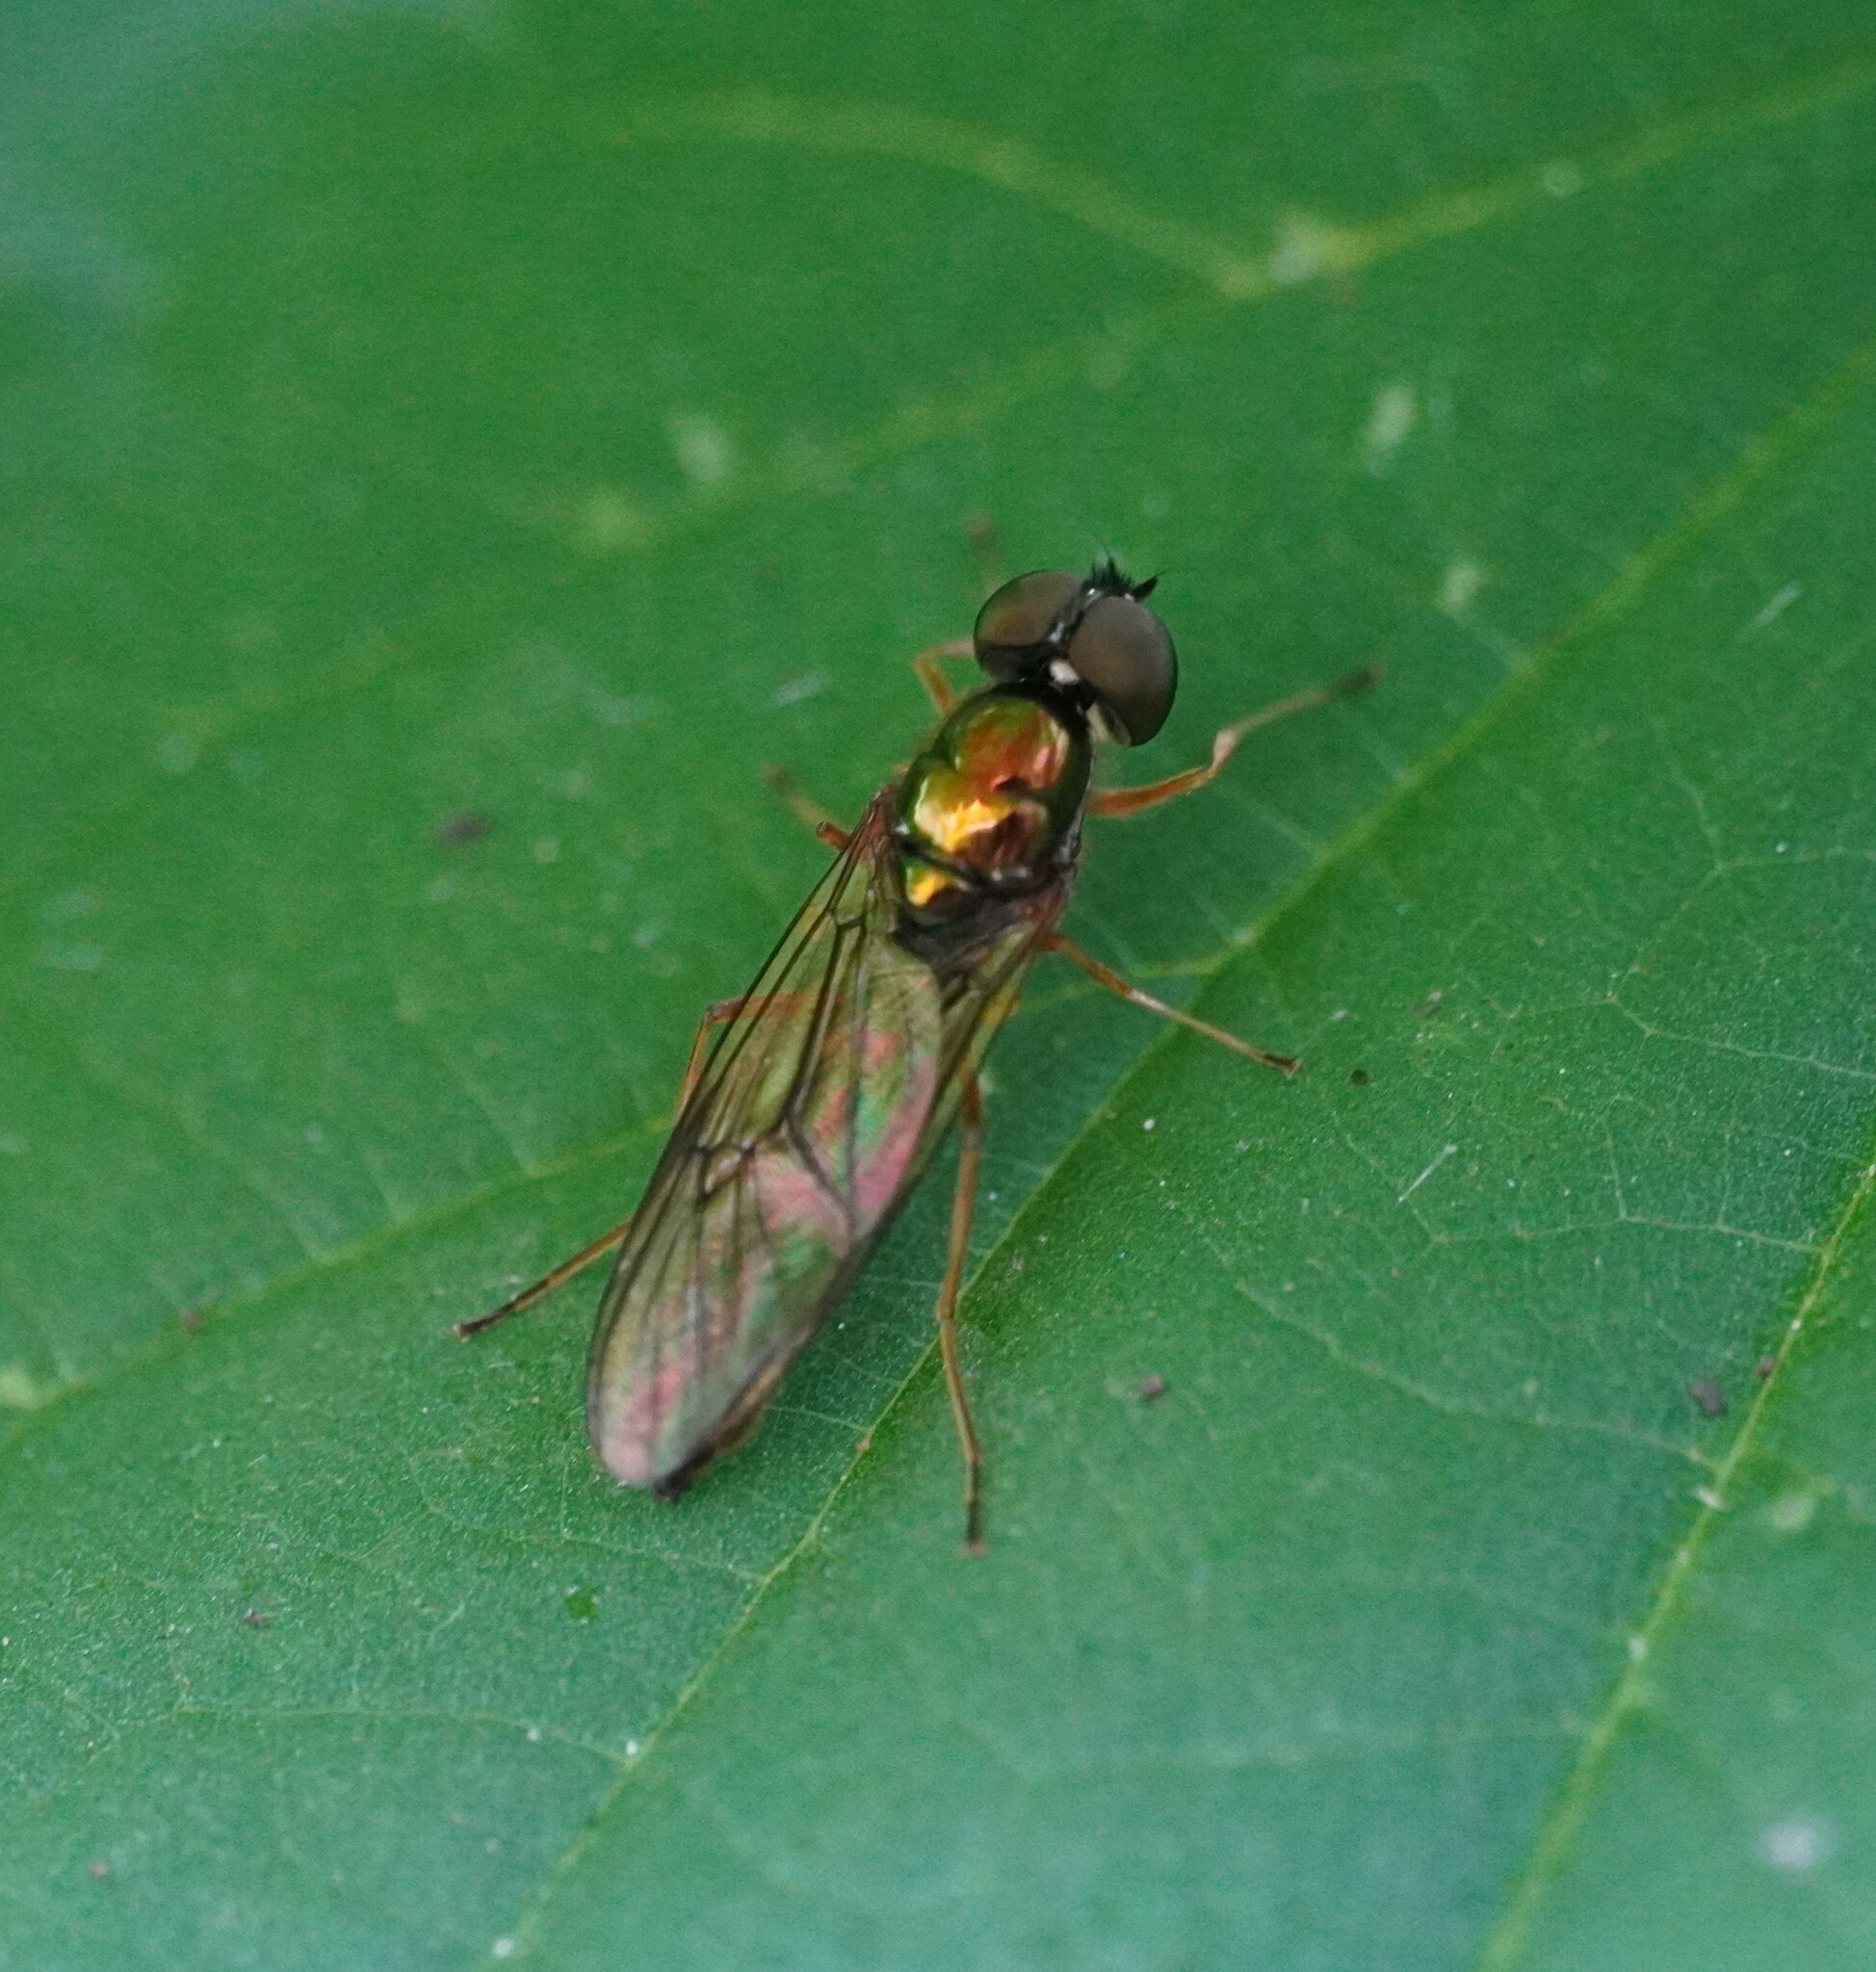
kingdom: Animalia
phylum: Arthropoda
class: Insecta
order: Diptera
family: Stratiomyidae
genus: Sargus
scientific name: Sargus bipunctatus
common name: Twin-spot centurion
